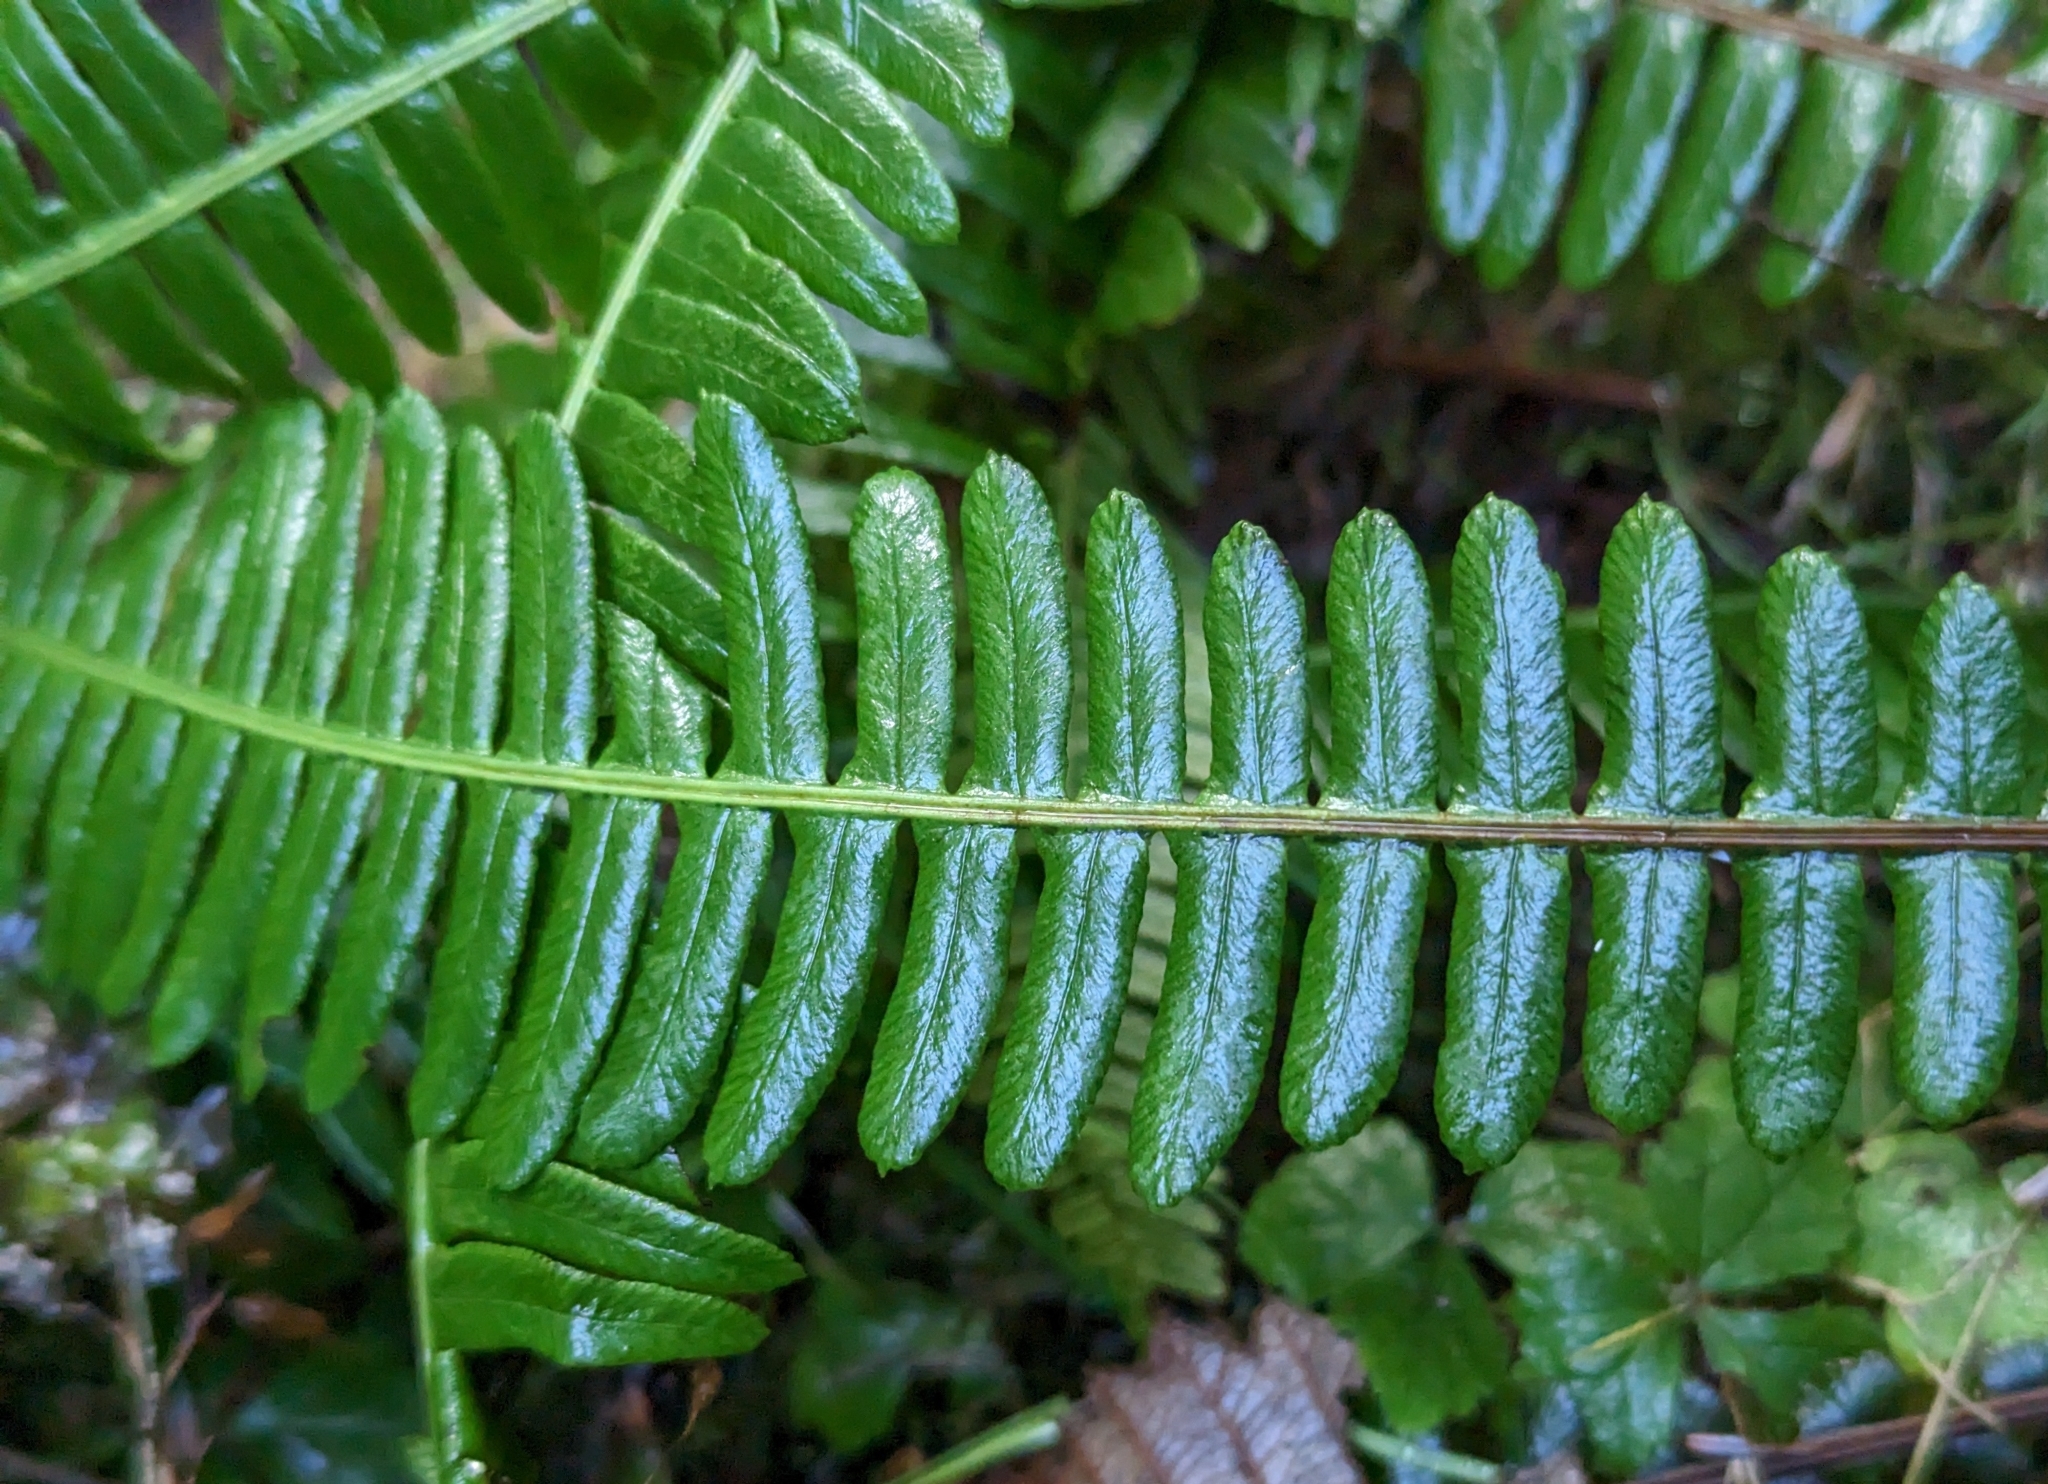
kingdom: Plantae
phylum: Tracheophyta
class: Polypodiopsida
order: Polypodiales
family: Blechnaceae
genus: Struthiopteris
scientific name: Struthiopteris spicant
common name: Deer fern
